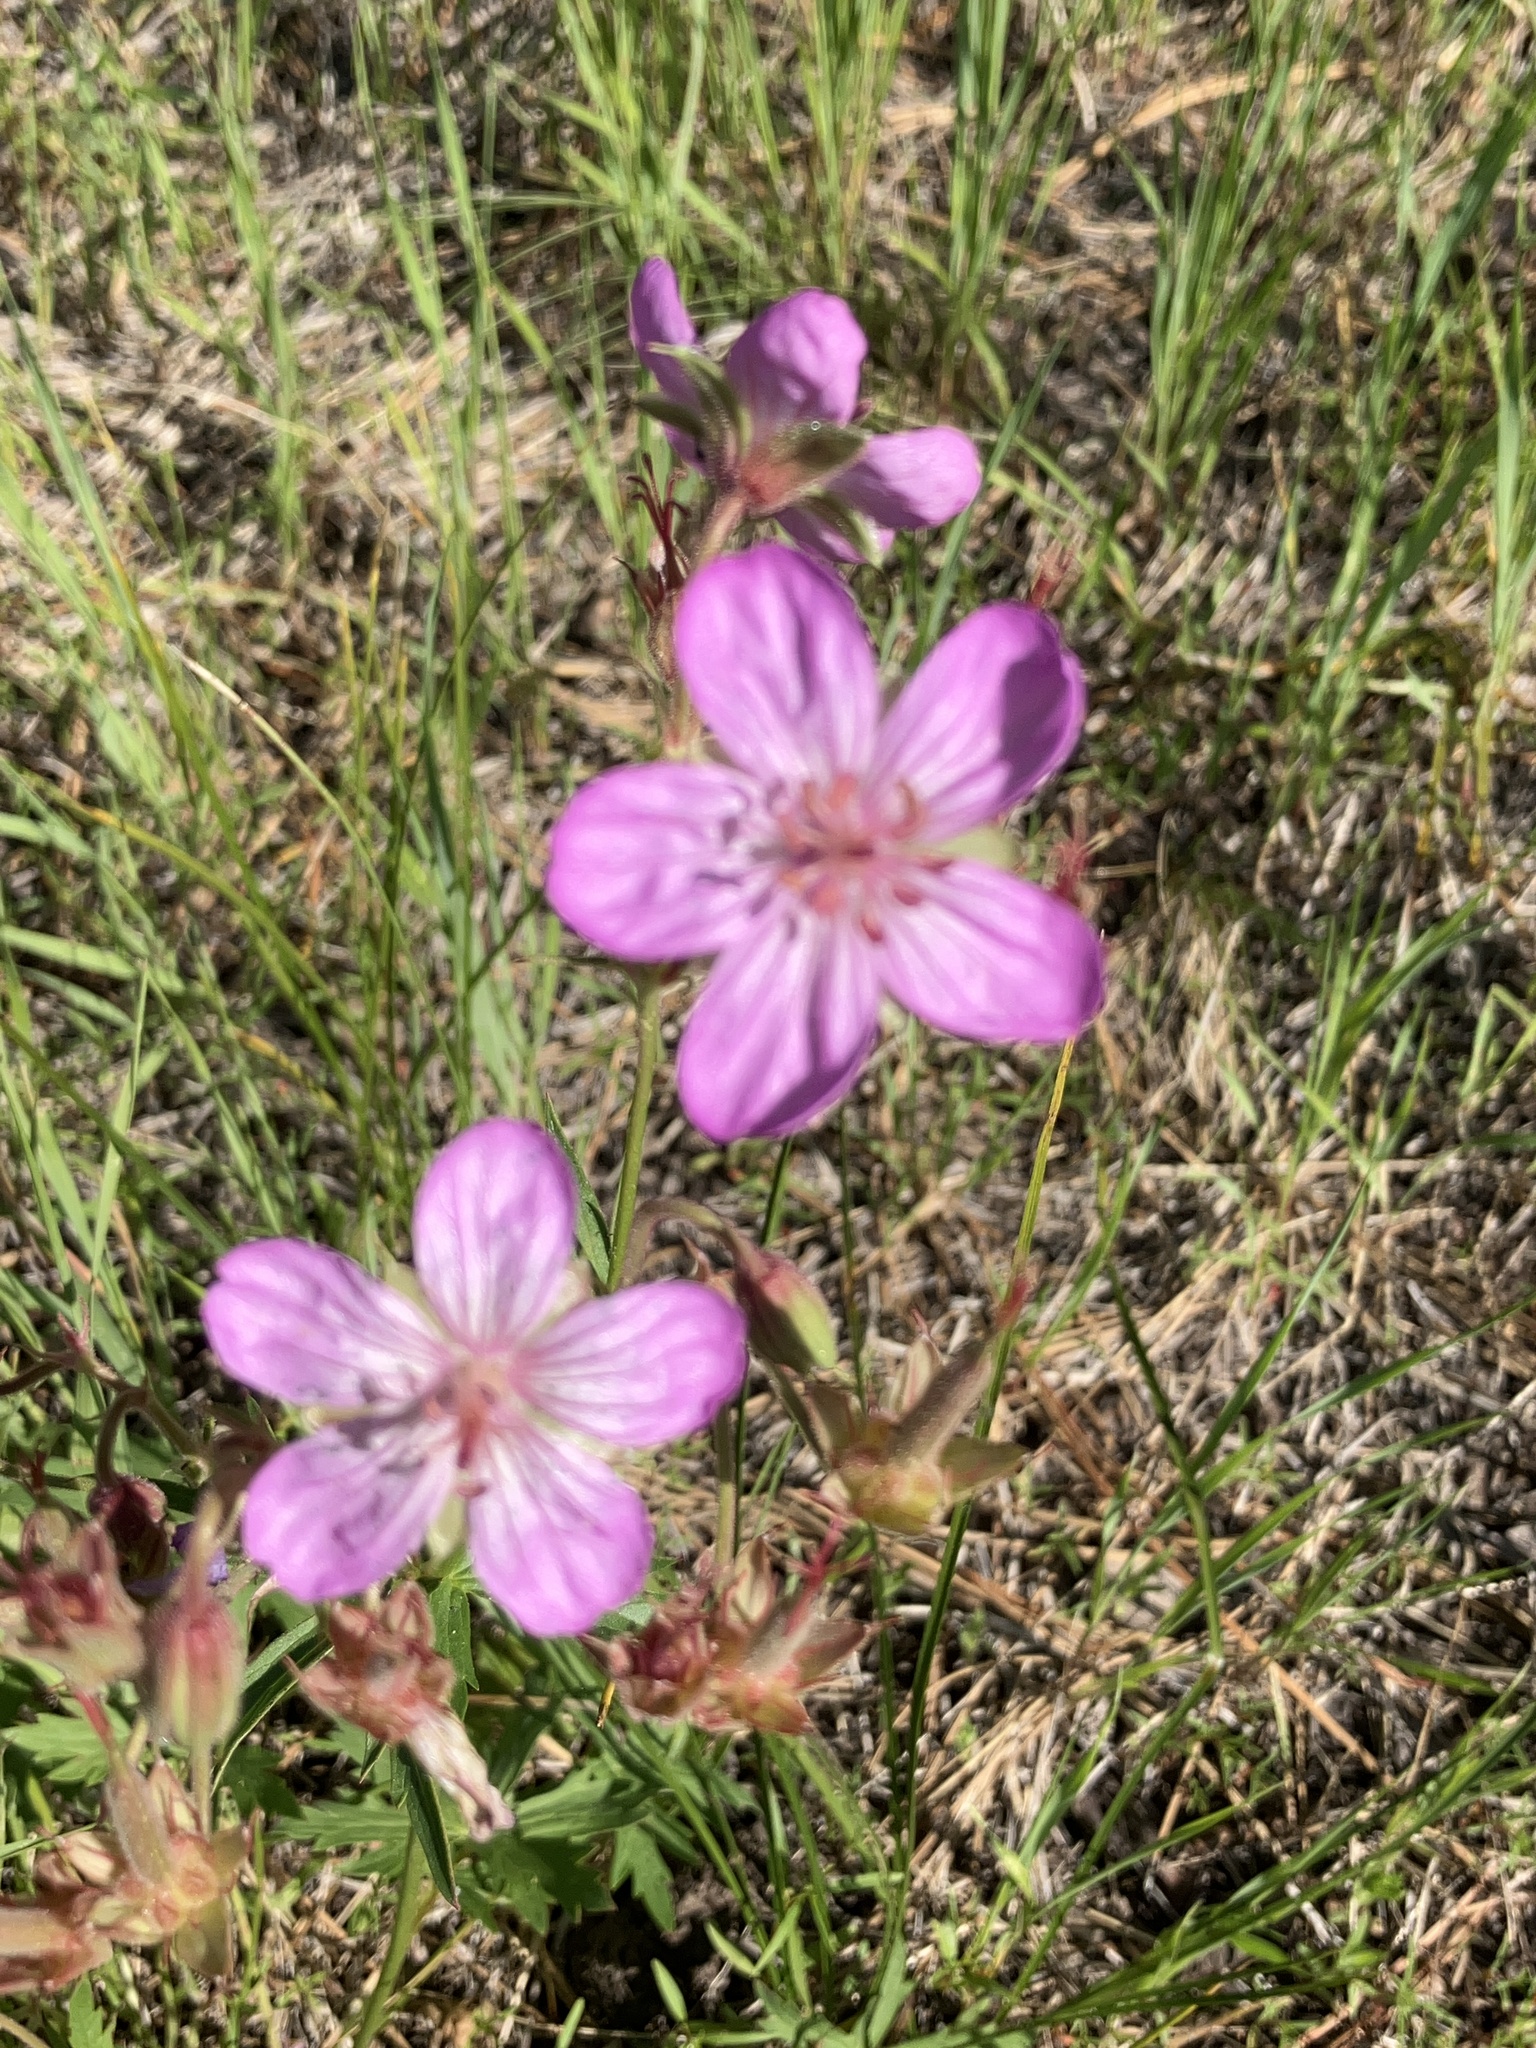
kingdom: Plantae
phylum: Tracheophyta
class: Magnoliopsida
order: Geraniales
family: Geraniaceae
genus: Geranium
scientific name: Geranium viscosissimum
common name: Purple geranium
